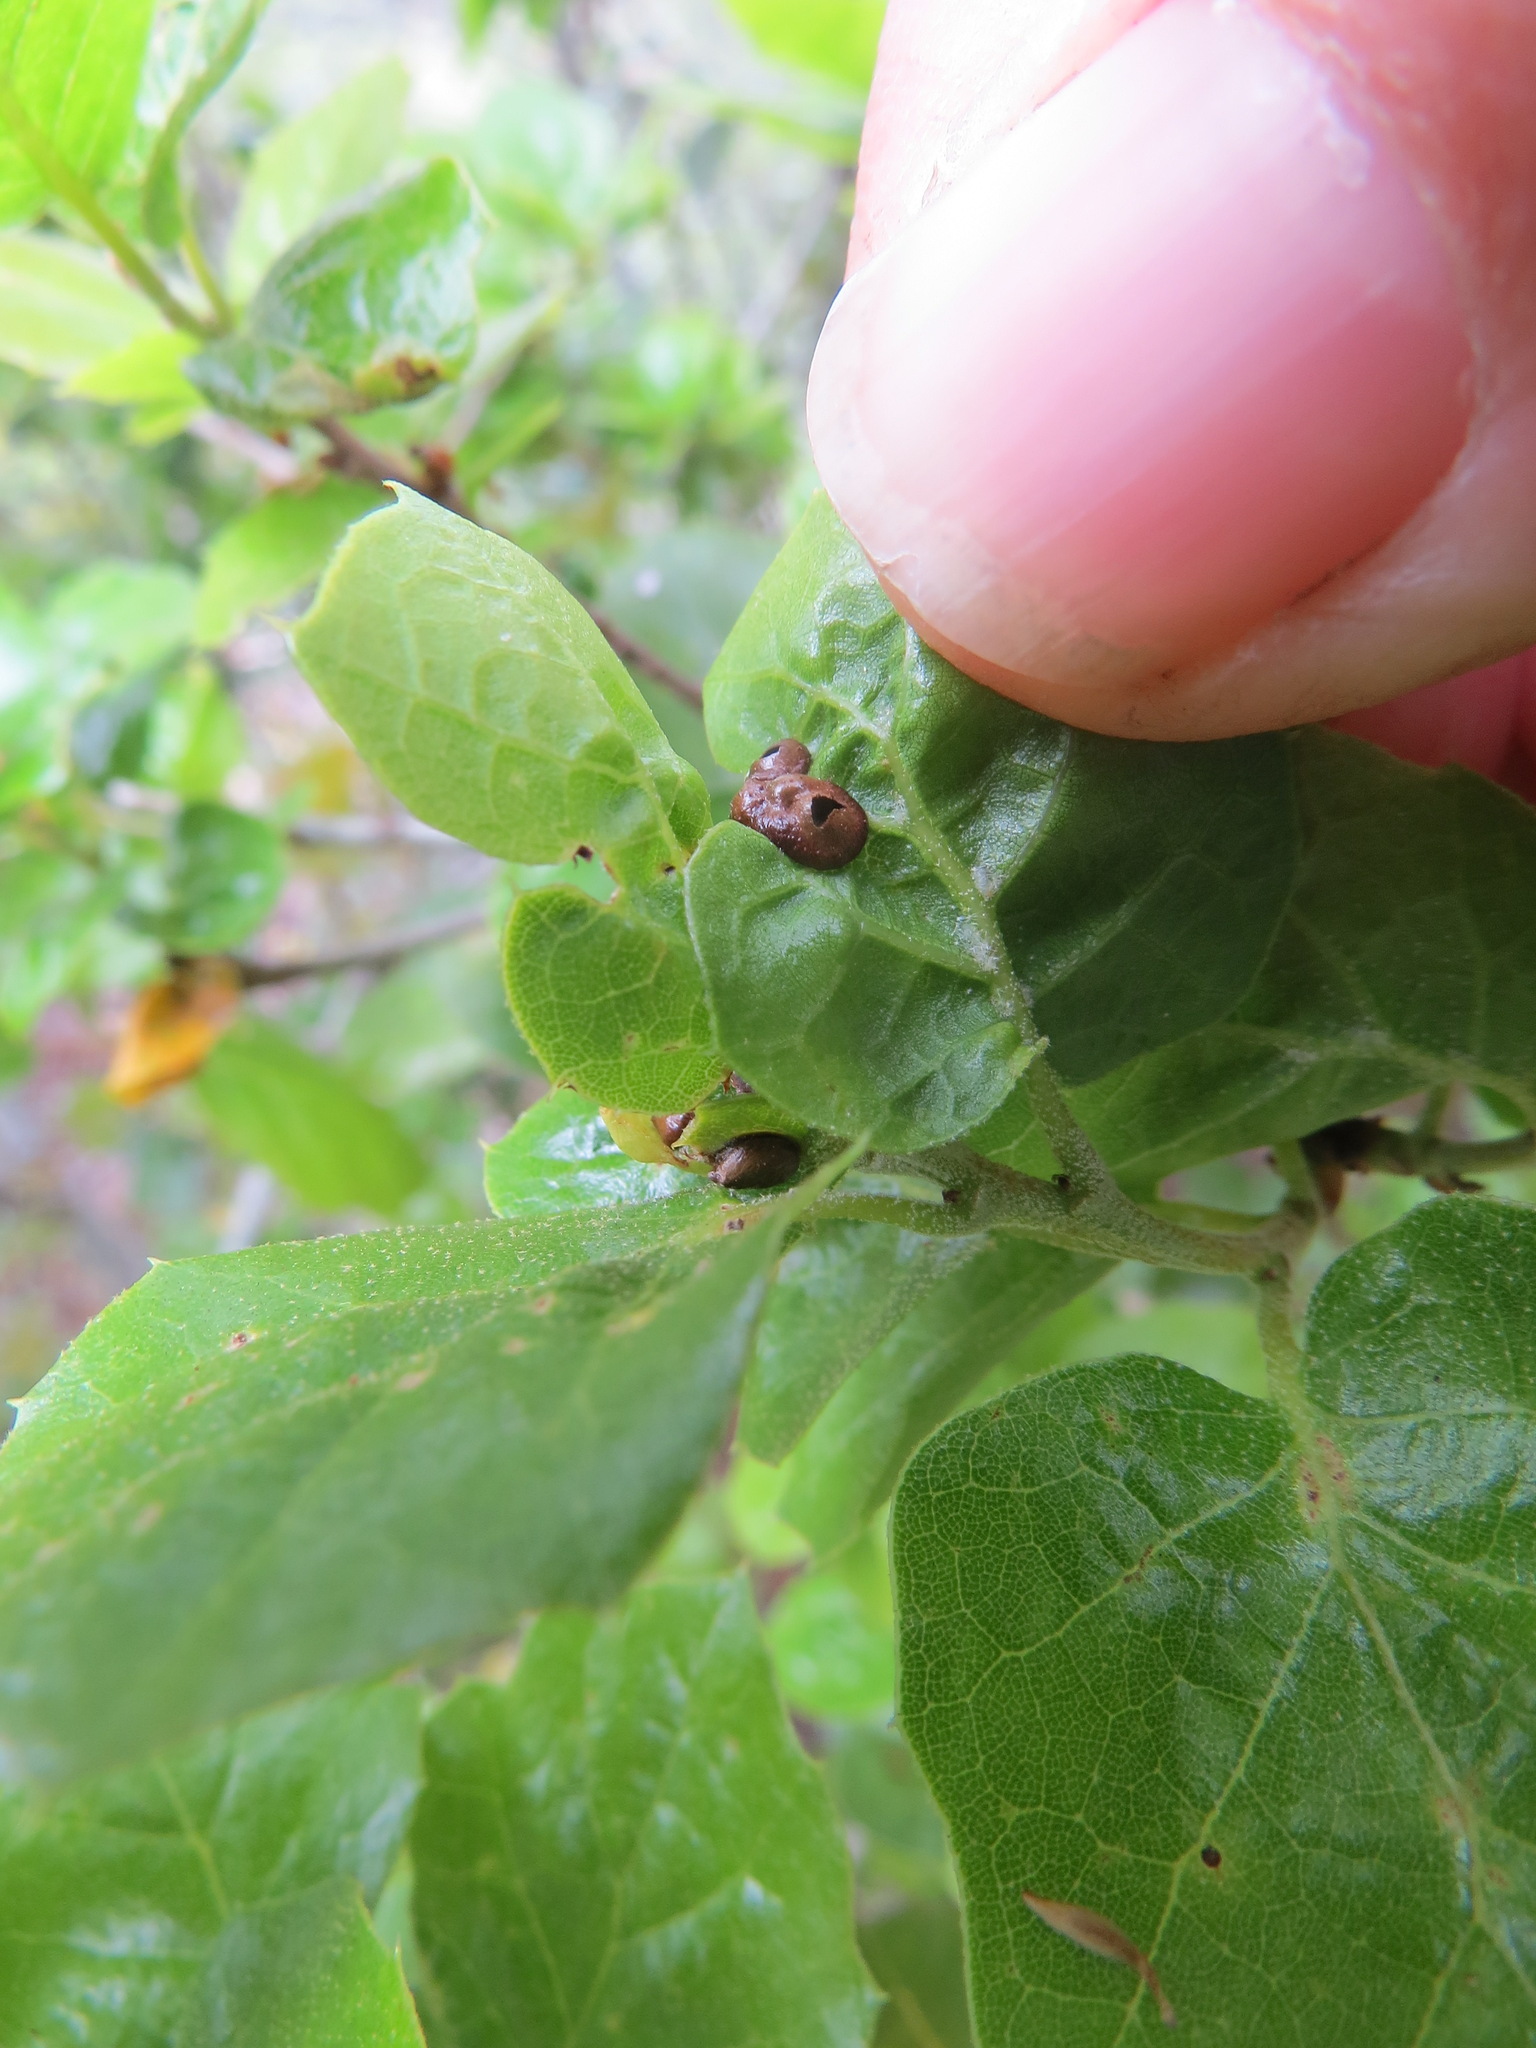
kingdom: Animalia
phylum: Arthropoda
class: Insecta
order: Hymenoptera
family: Cynipidae
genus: Dryocosmus
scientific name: Dryocosmus
